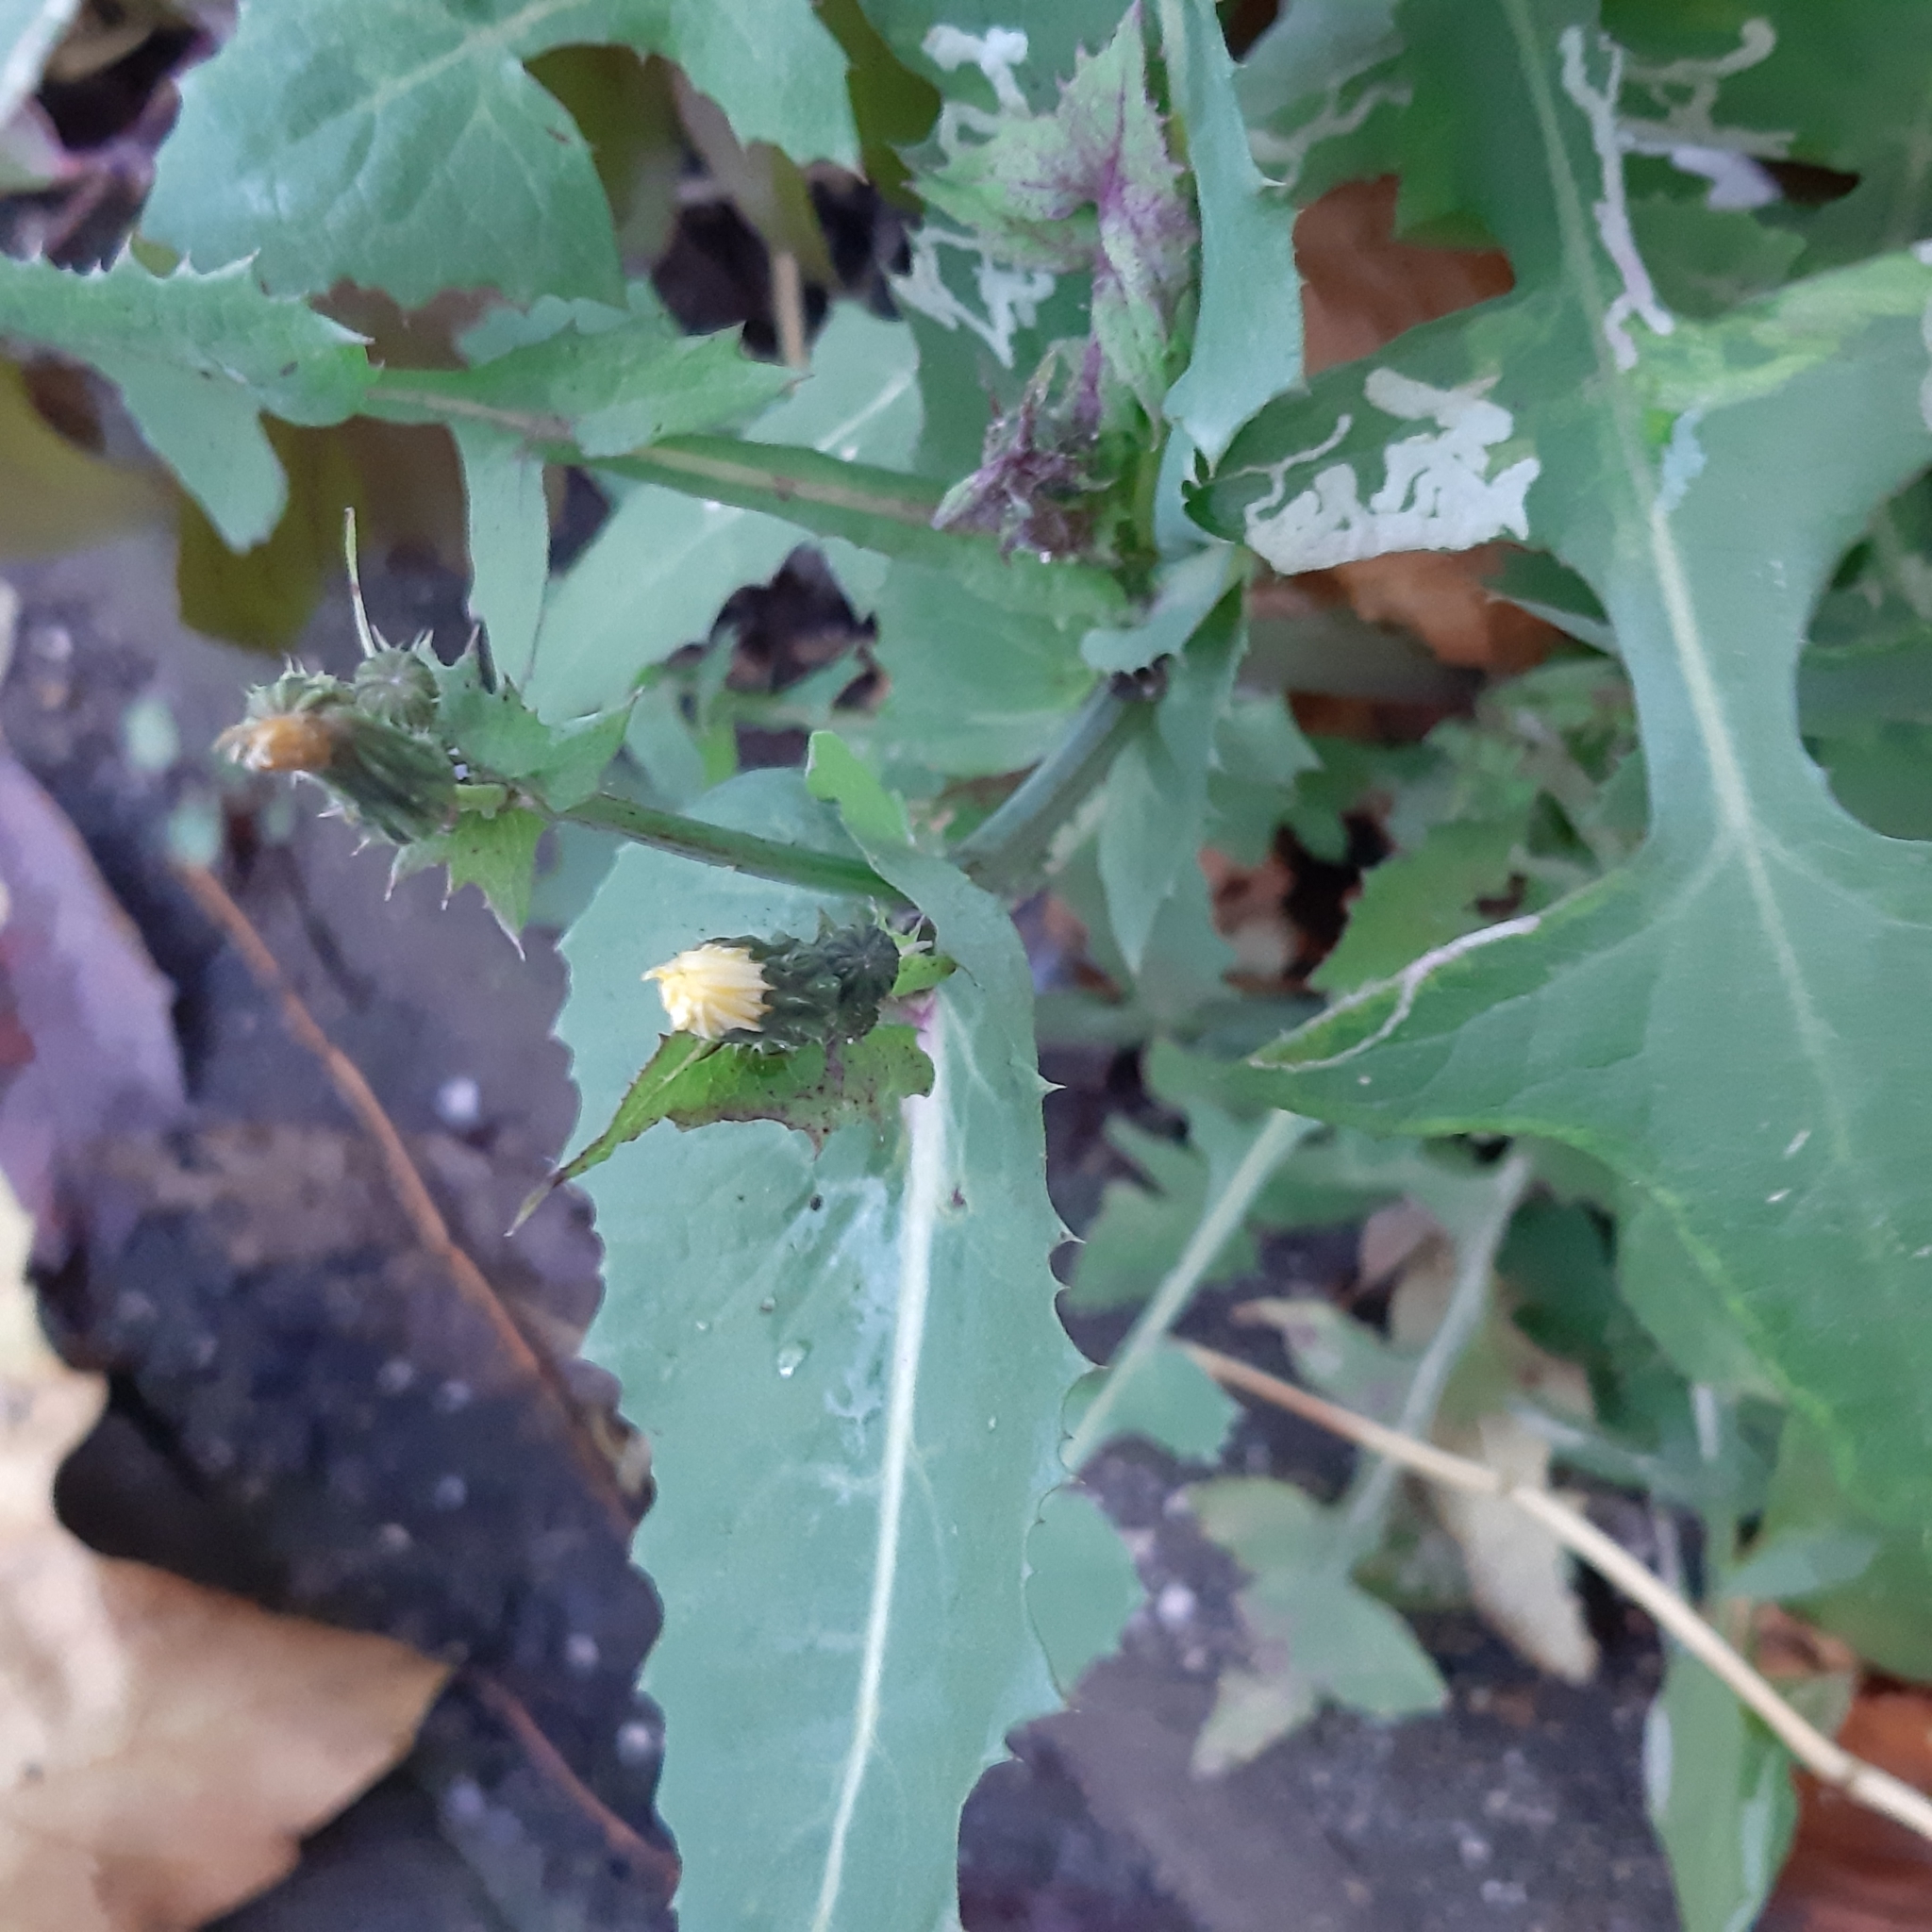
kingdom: Plantae
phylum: Tracheophyta
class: Magnoliopsida
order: Asterales
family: Asteraceae
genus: Sonchus
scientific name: Sonchus oleraceus
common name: Common sowthistle
